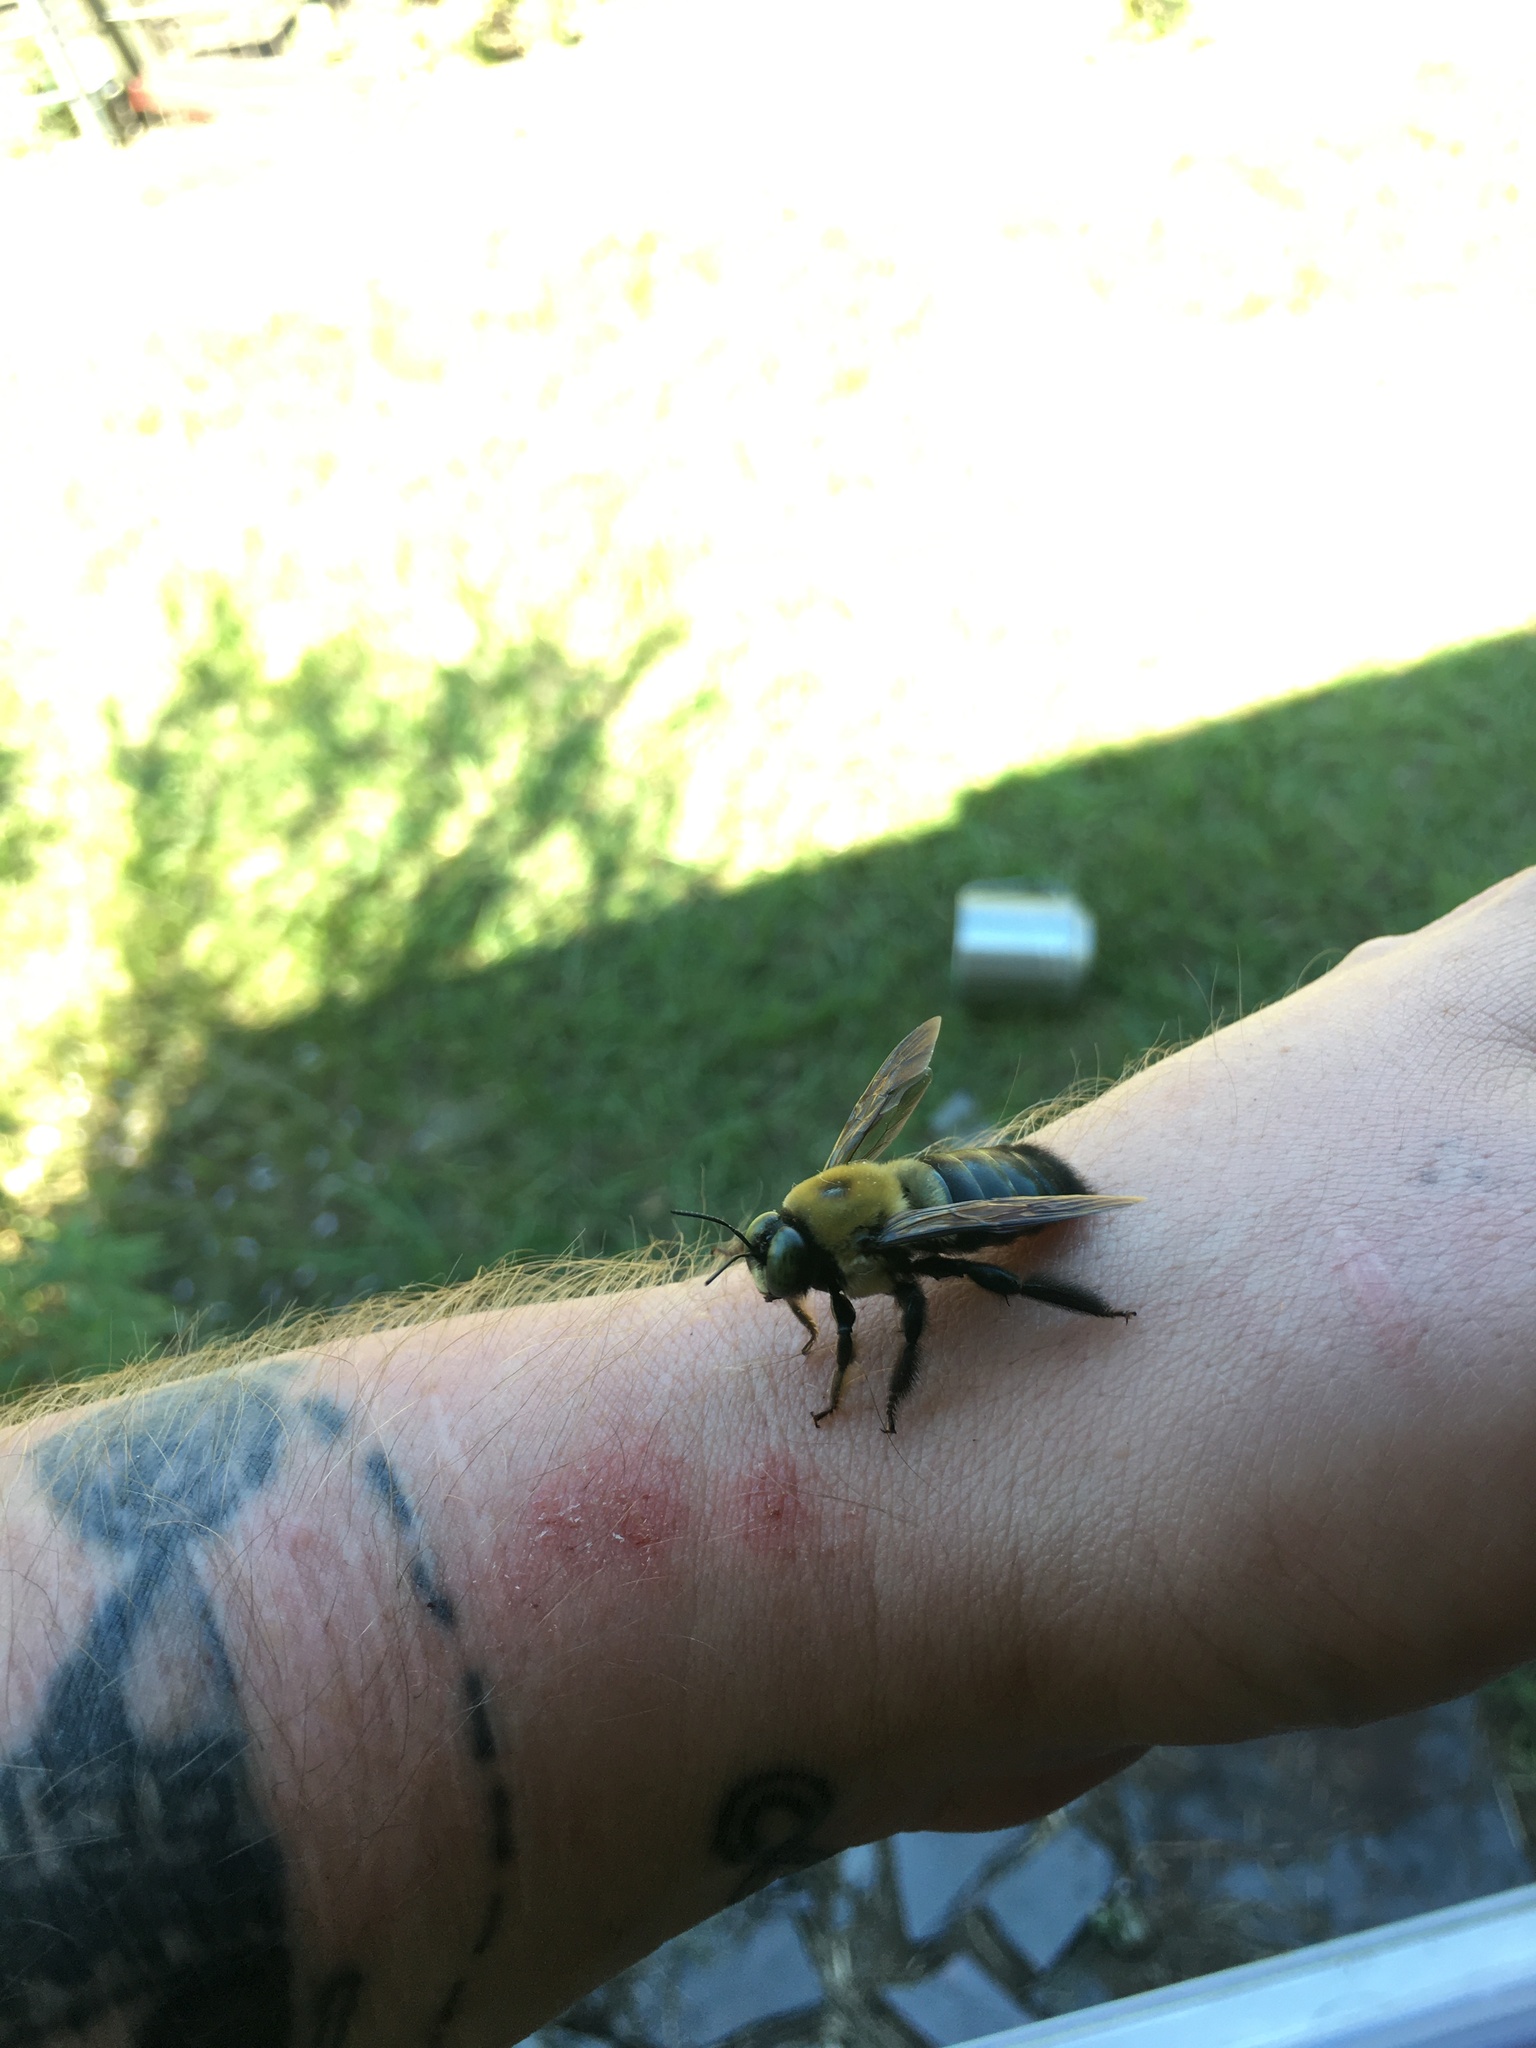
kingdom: Animalia
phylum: Arthropoda
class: Insecta
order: Hymenoptera
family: Apidae
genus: Xylocopa
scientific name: Xylocopa virginica
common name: Carpenter bee
